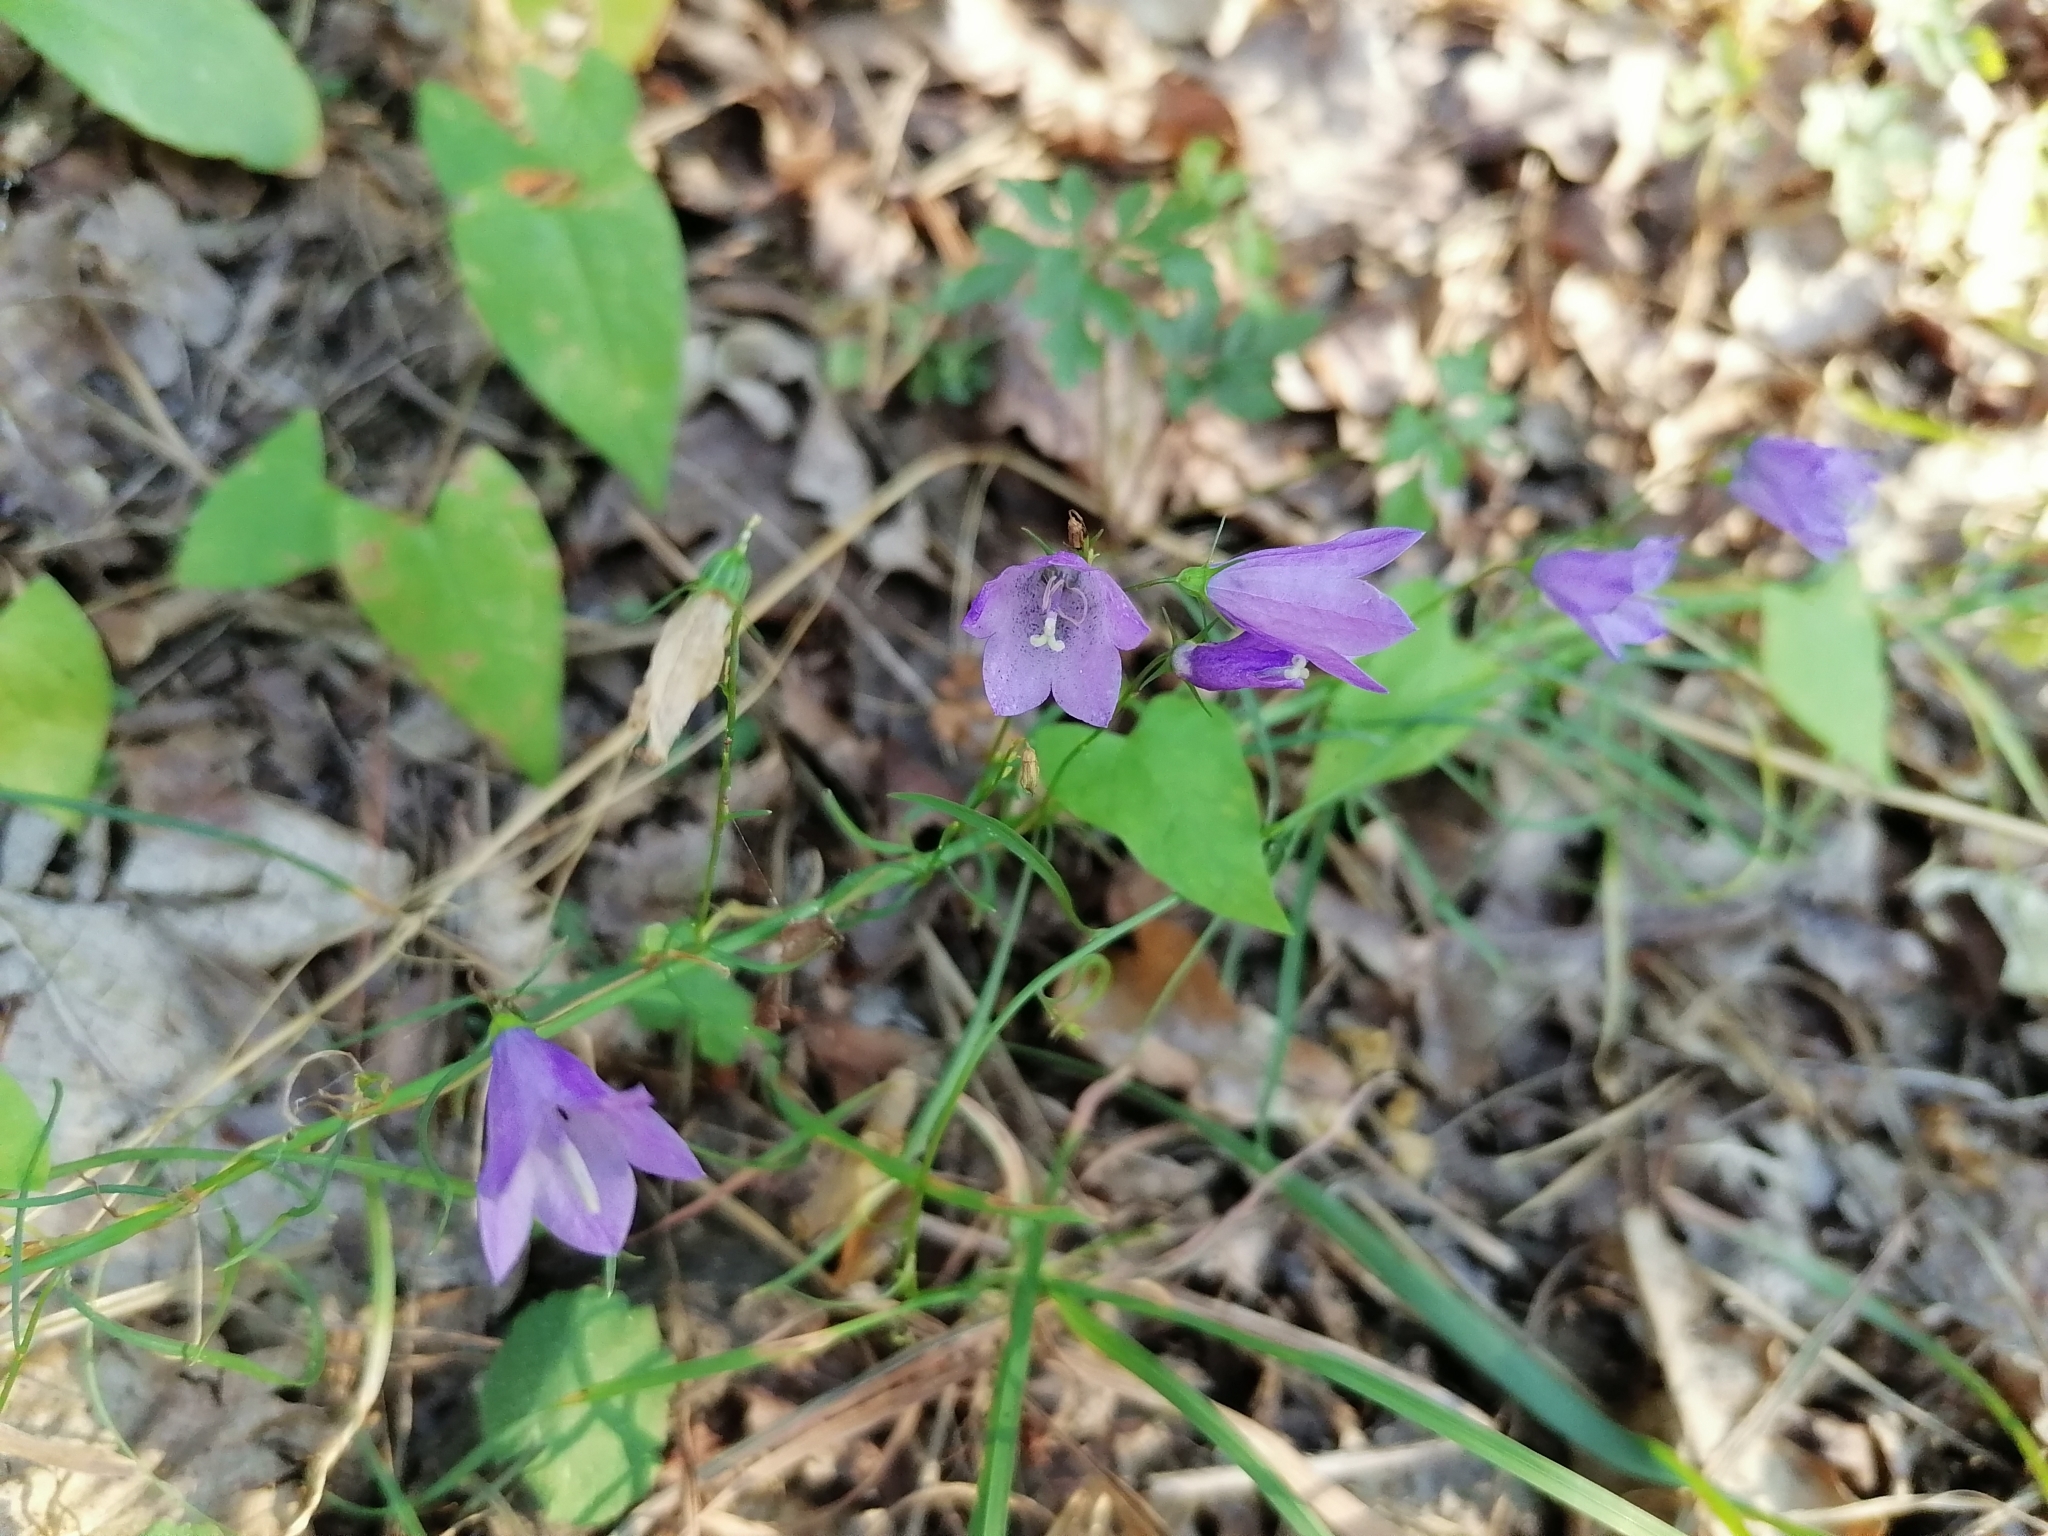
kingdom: Plantae
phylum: Tracheophyta
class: Magnoliopsida
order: Asterales
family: Campanulaceae
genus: Campanula
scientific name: Campanula rapunculoides
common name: Creeping bellflower
